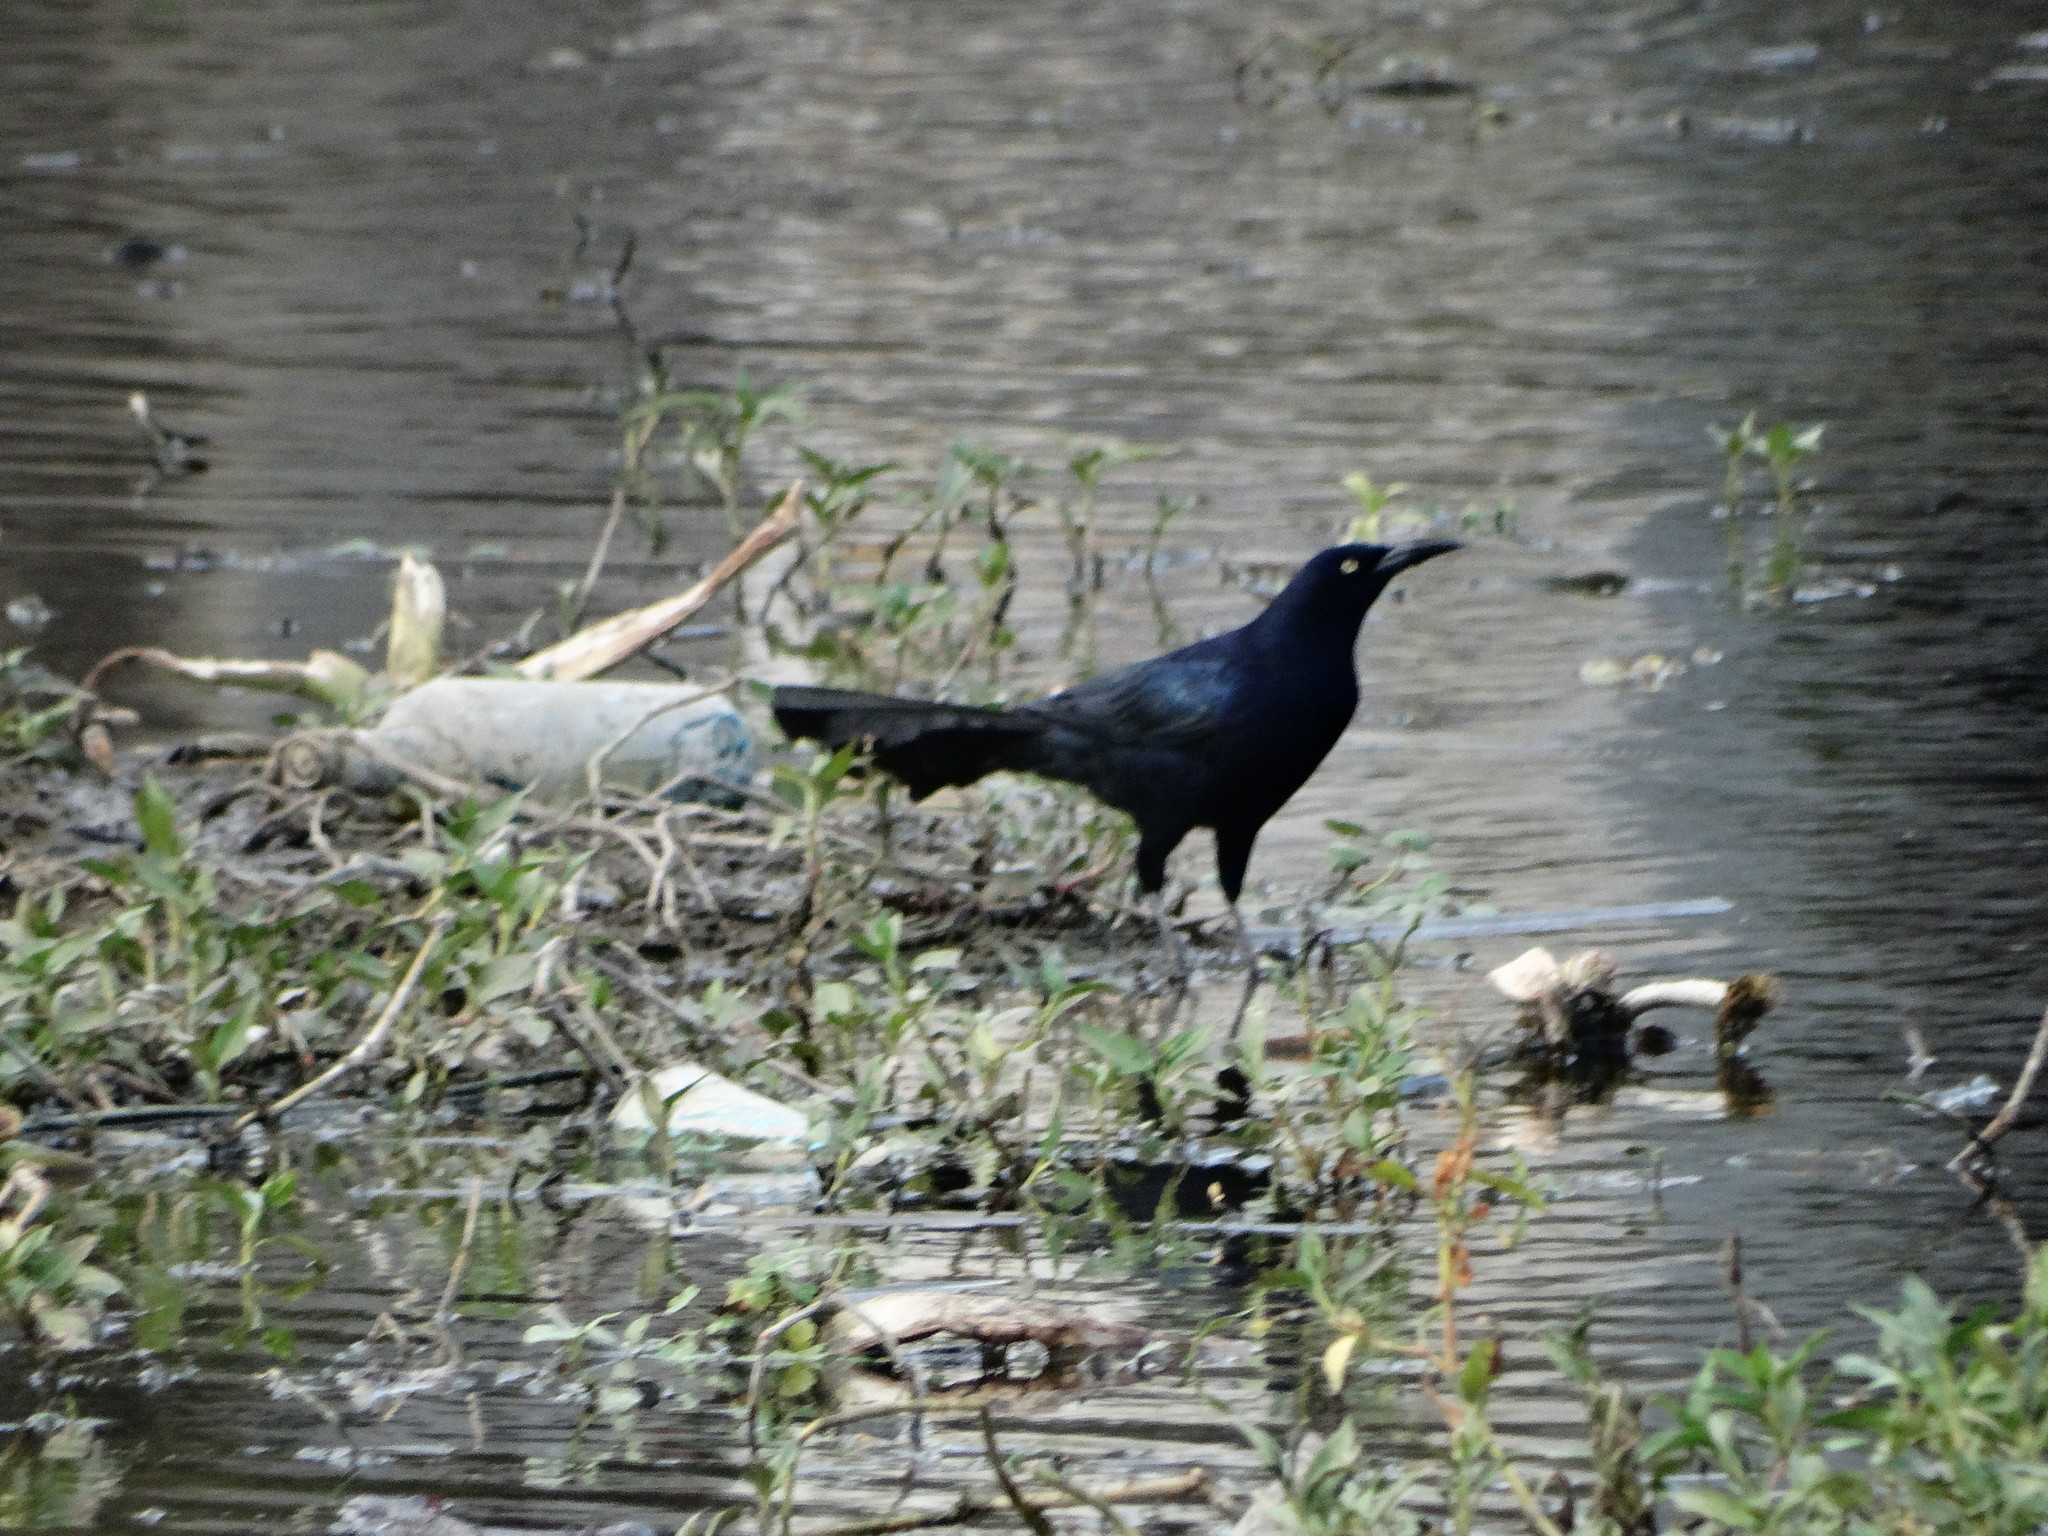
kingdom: Animalia
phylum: Chordata
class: Aves
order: Passeriformes
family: Icteridae
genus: Quiscalus
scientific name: Quiscalus mexicanus
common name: Great-tailed grackle
